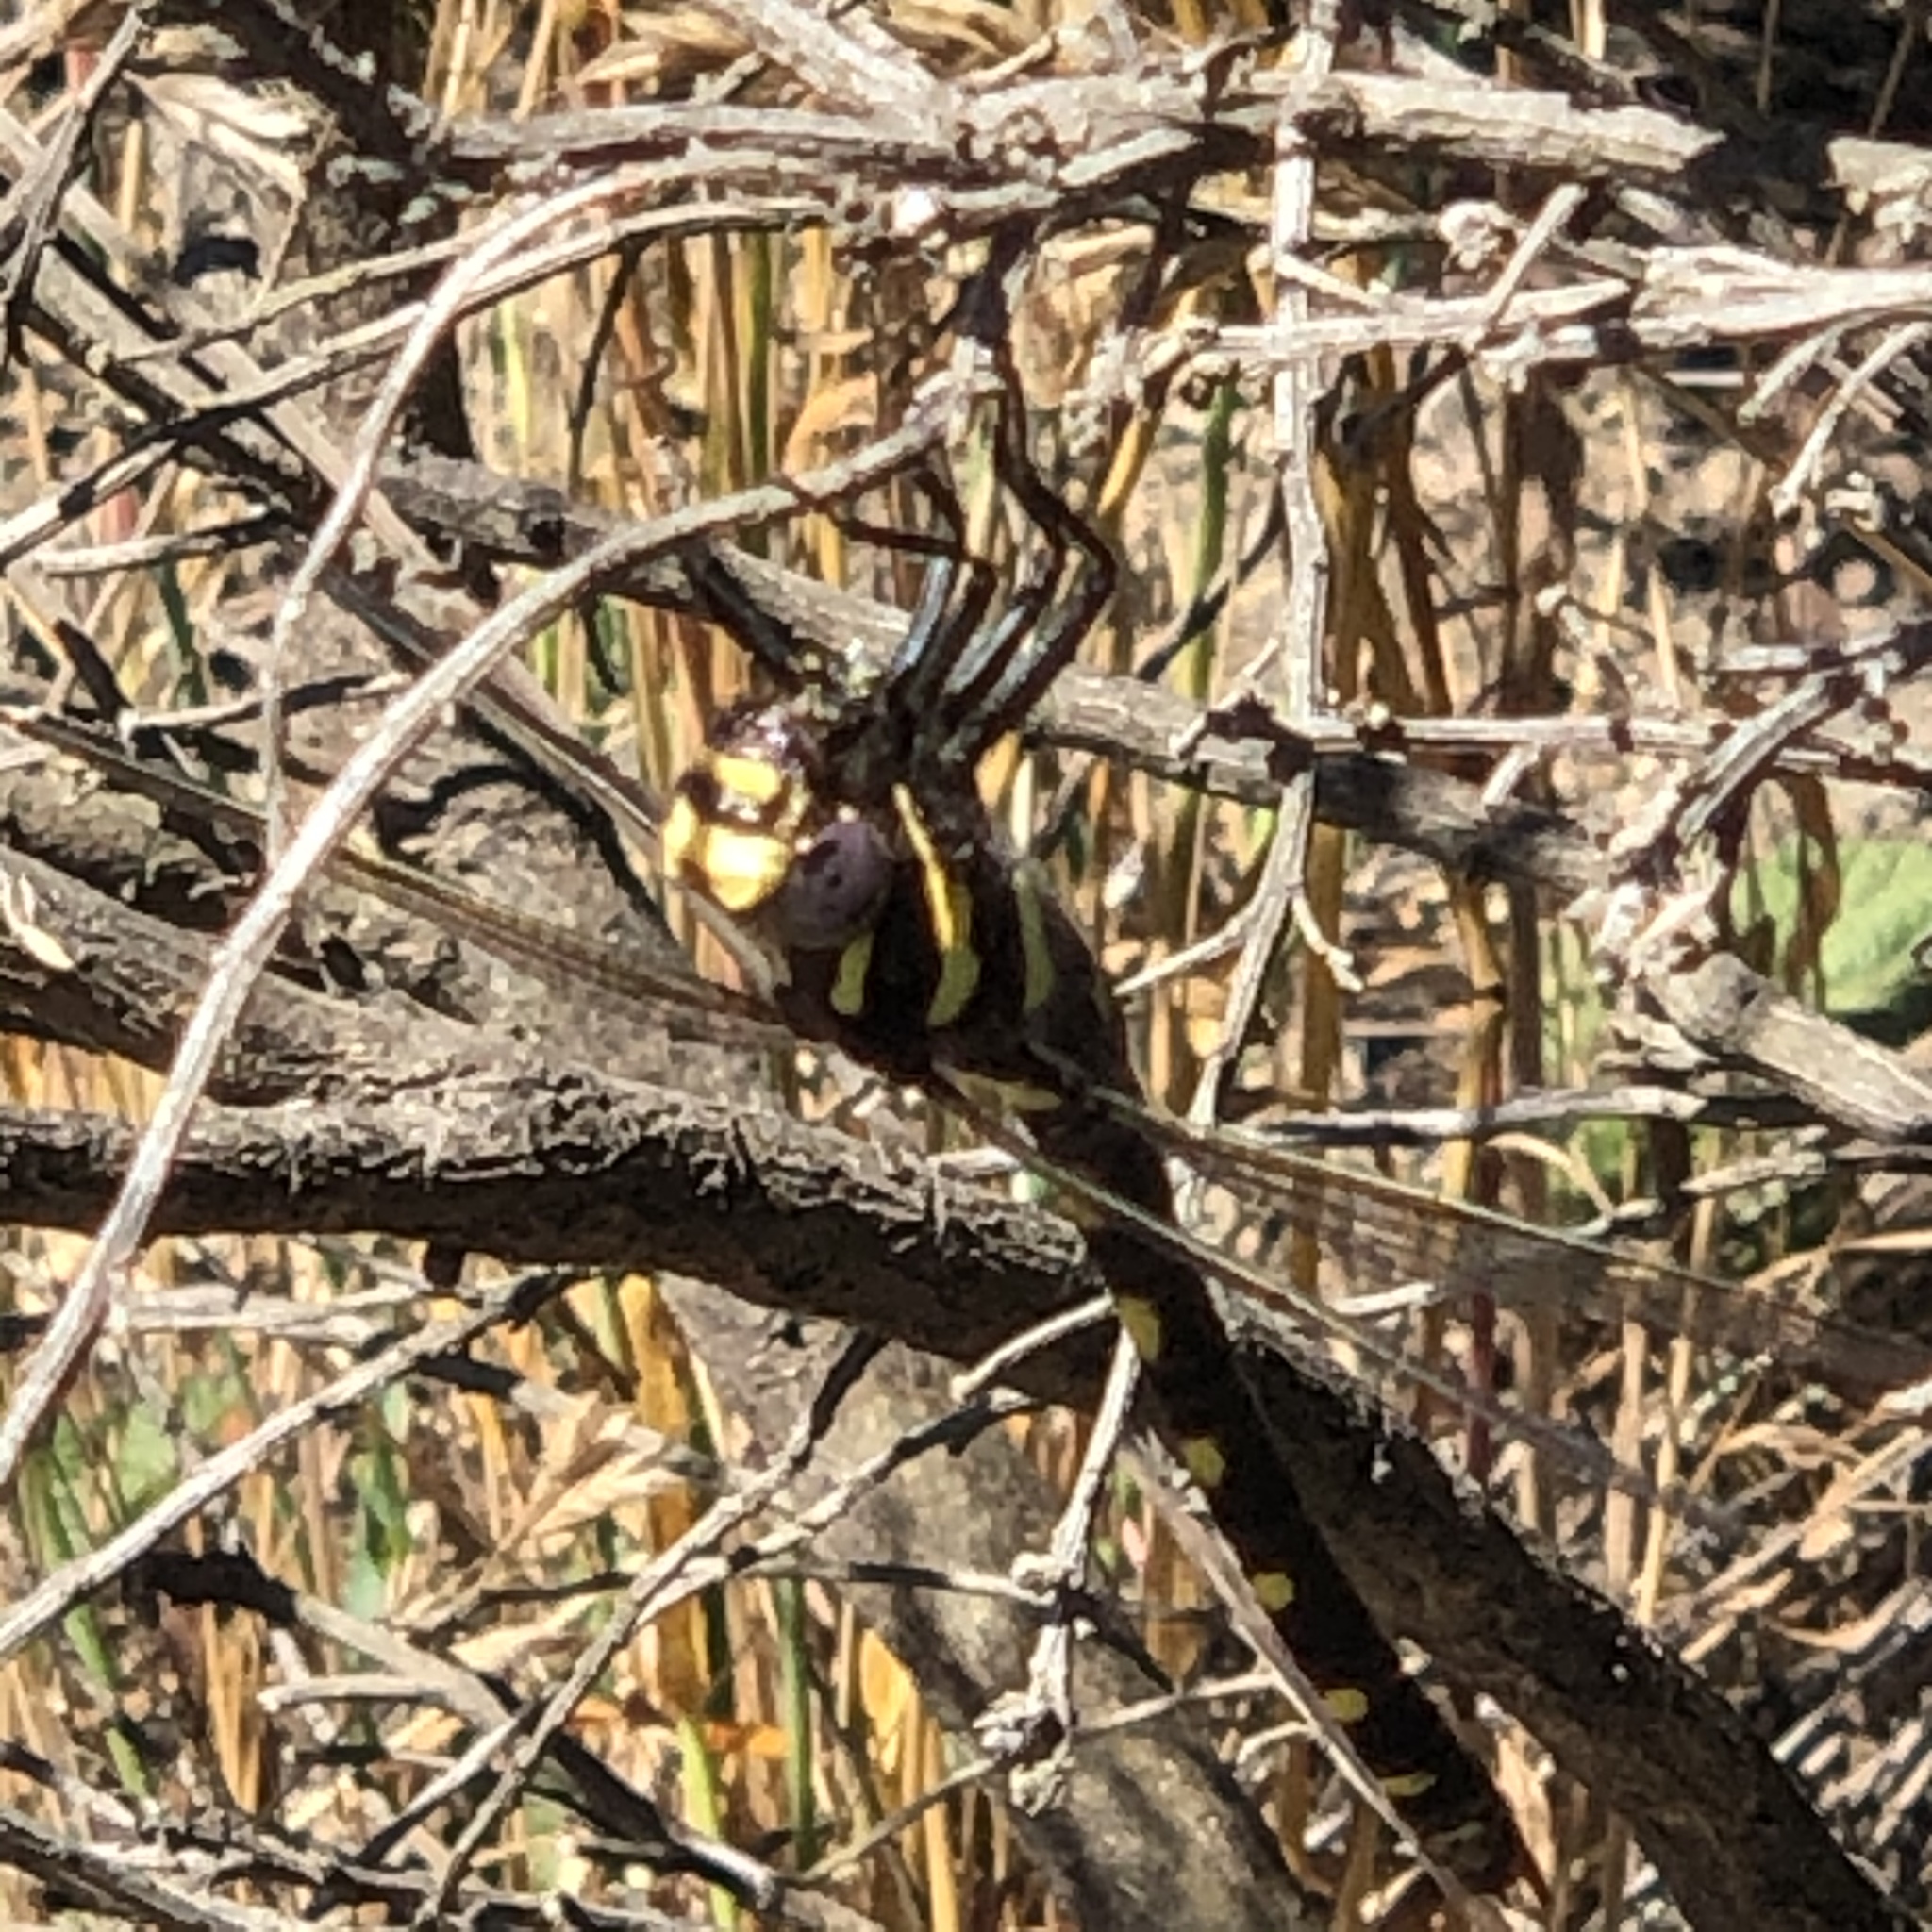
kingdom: Animalia
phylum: Arthropoda
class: Insecta
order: Odonata
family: Cordulegastridae
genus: Cordulegaster
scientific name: Cordulegaster dorsalis
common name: Pacific spiketail
